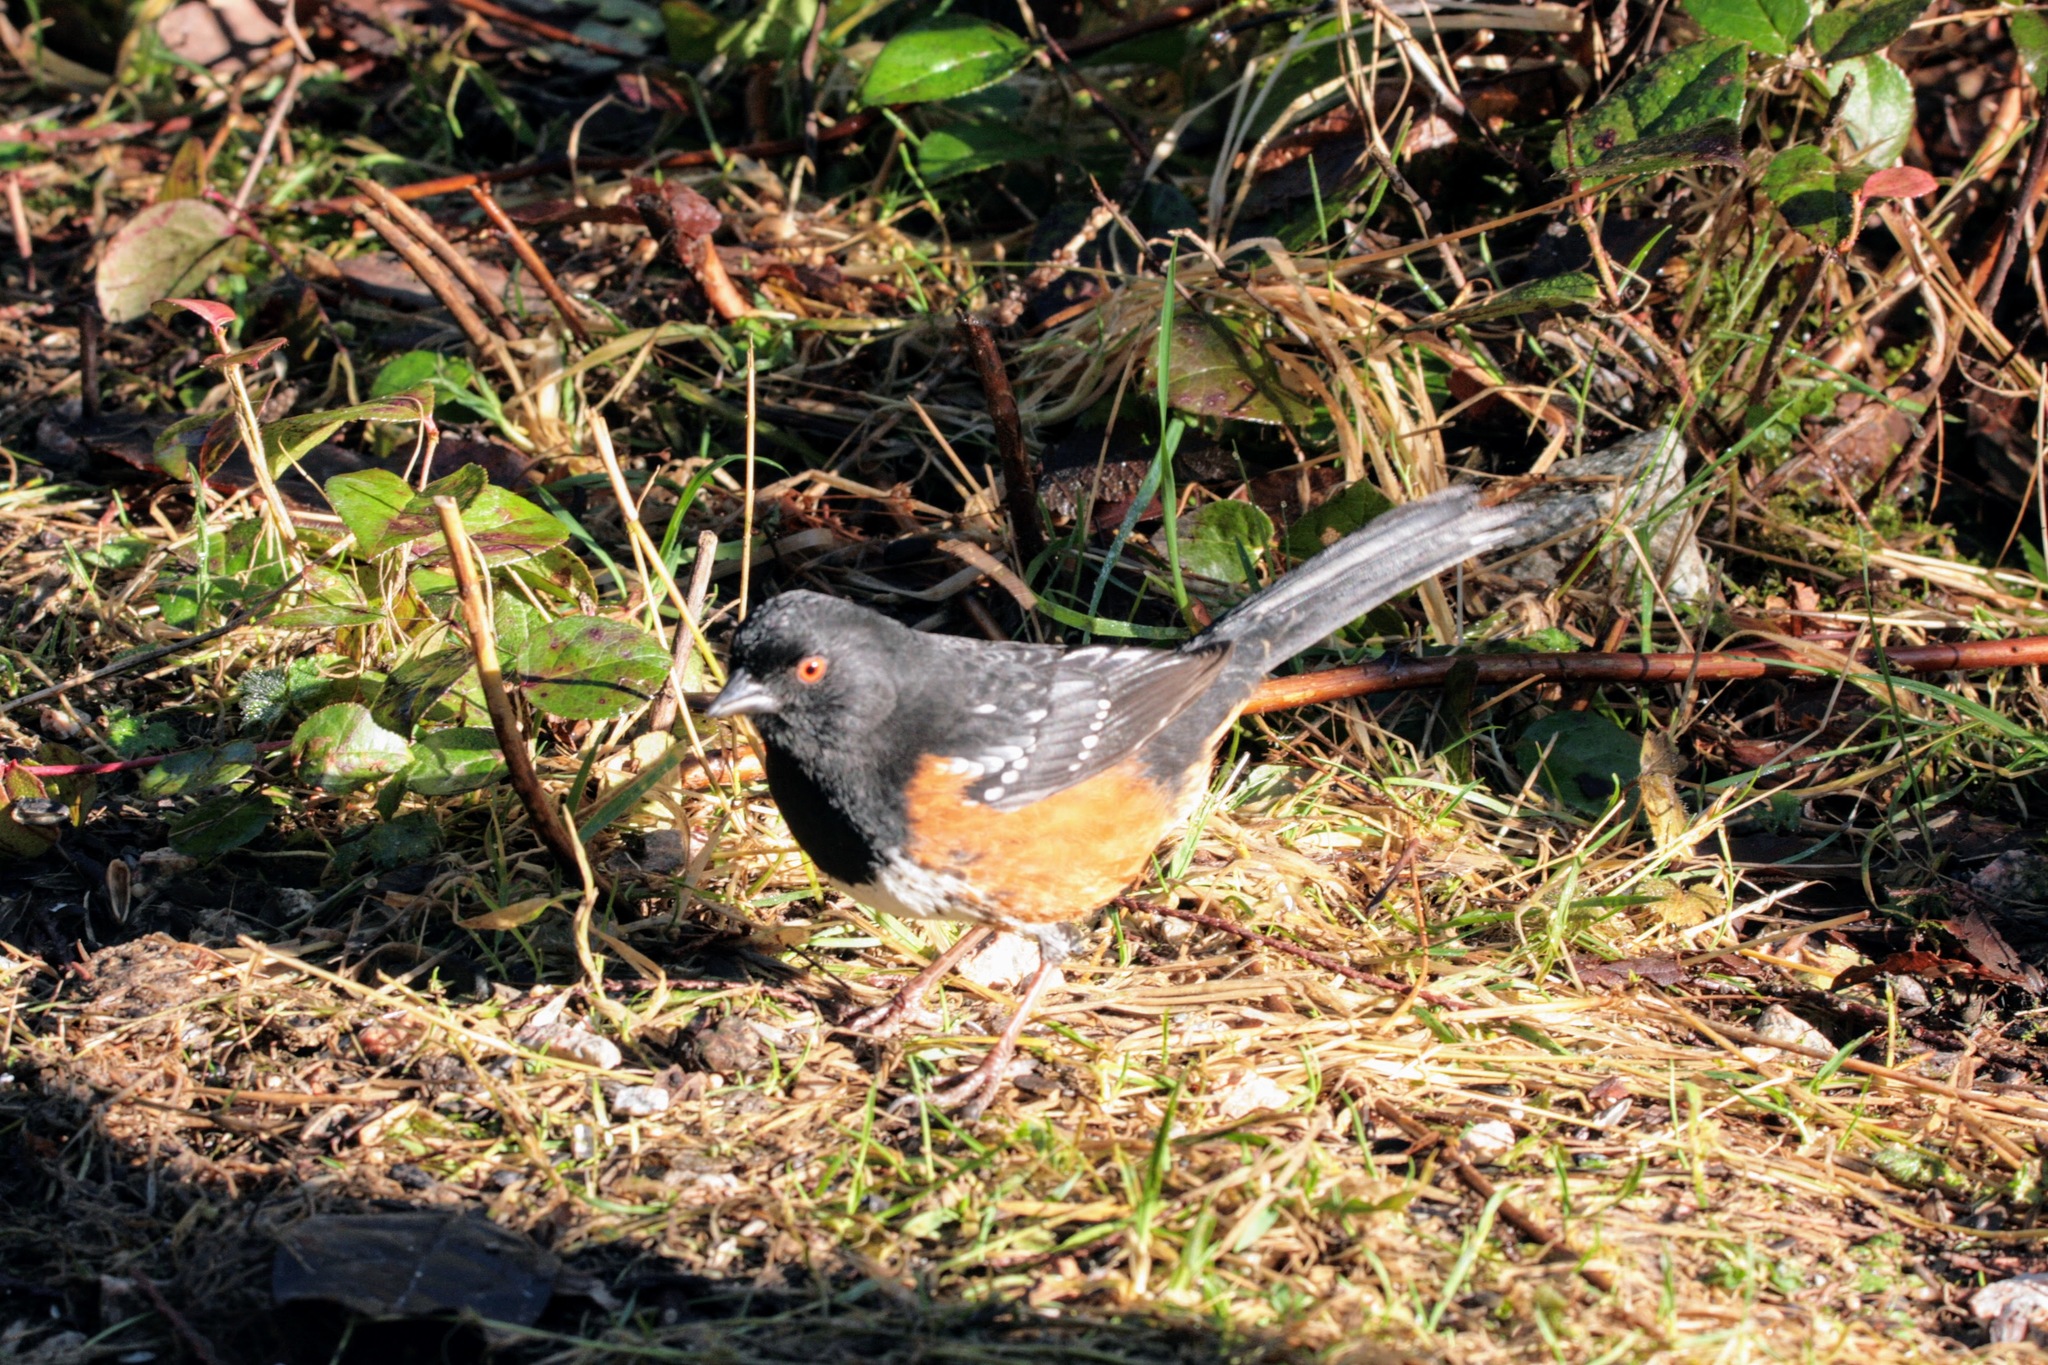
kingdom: Animalia
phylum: Chordata
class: Aves
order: Passeriformes
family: Passerellidae
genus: Pipilo
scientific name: Pipilo maculatus
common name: Spotted towhee
